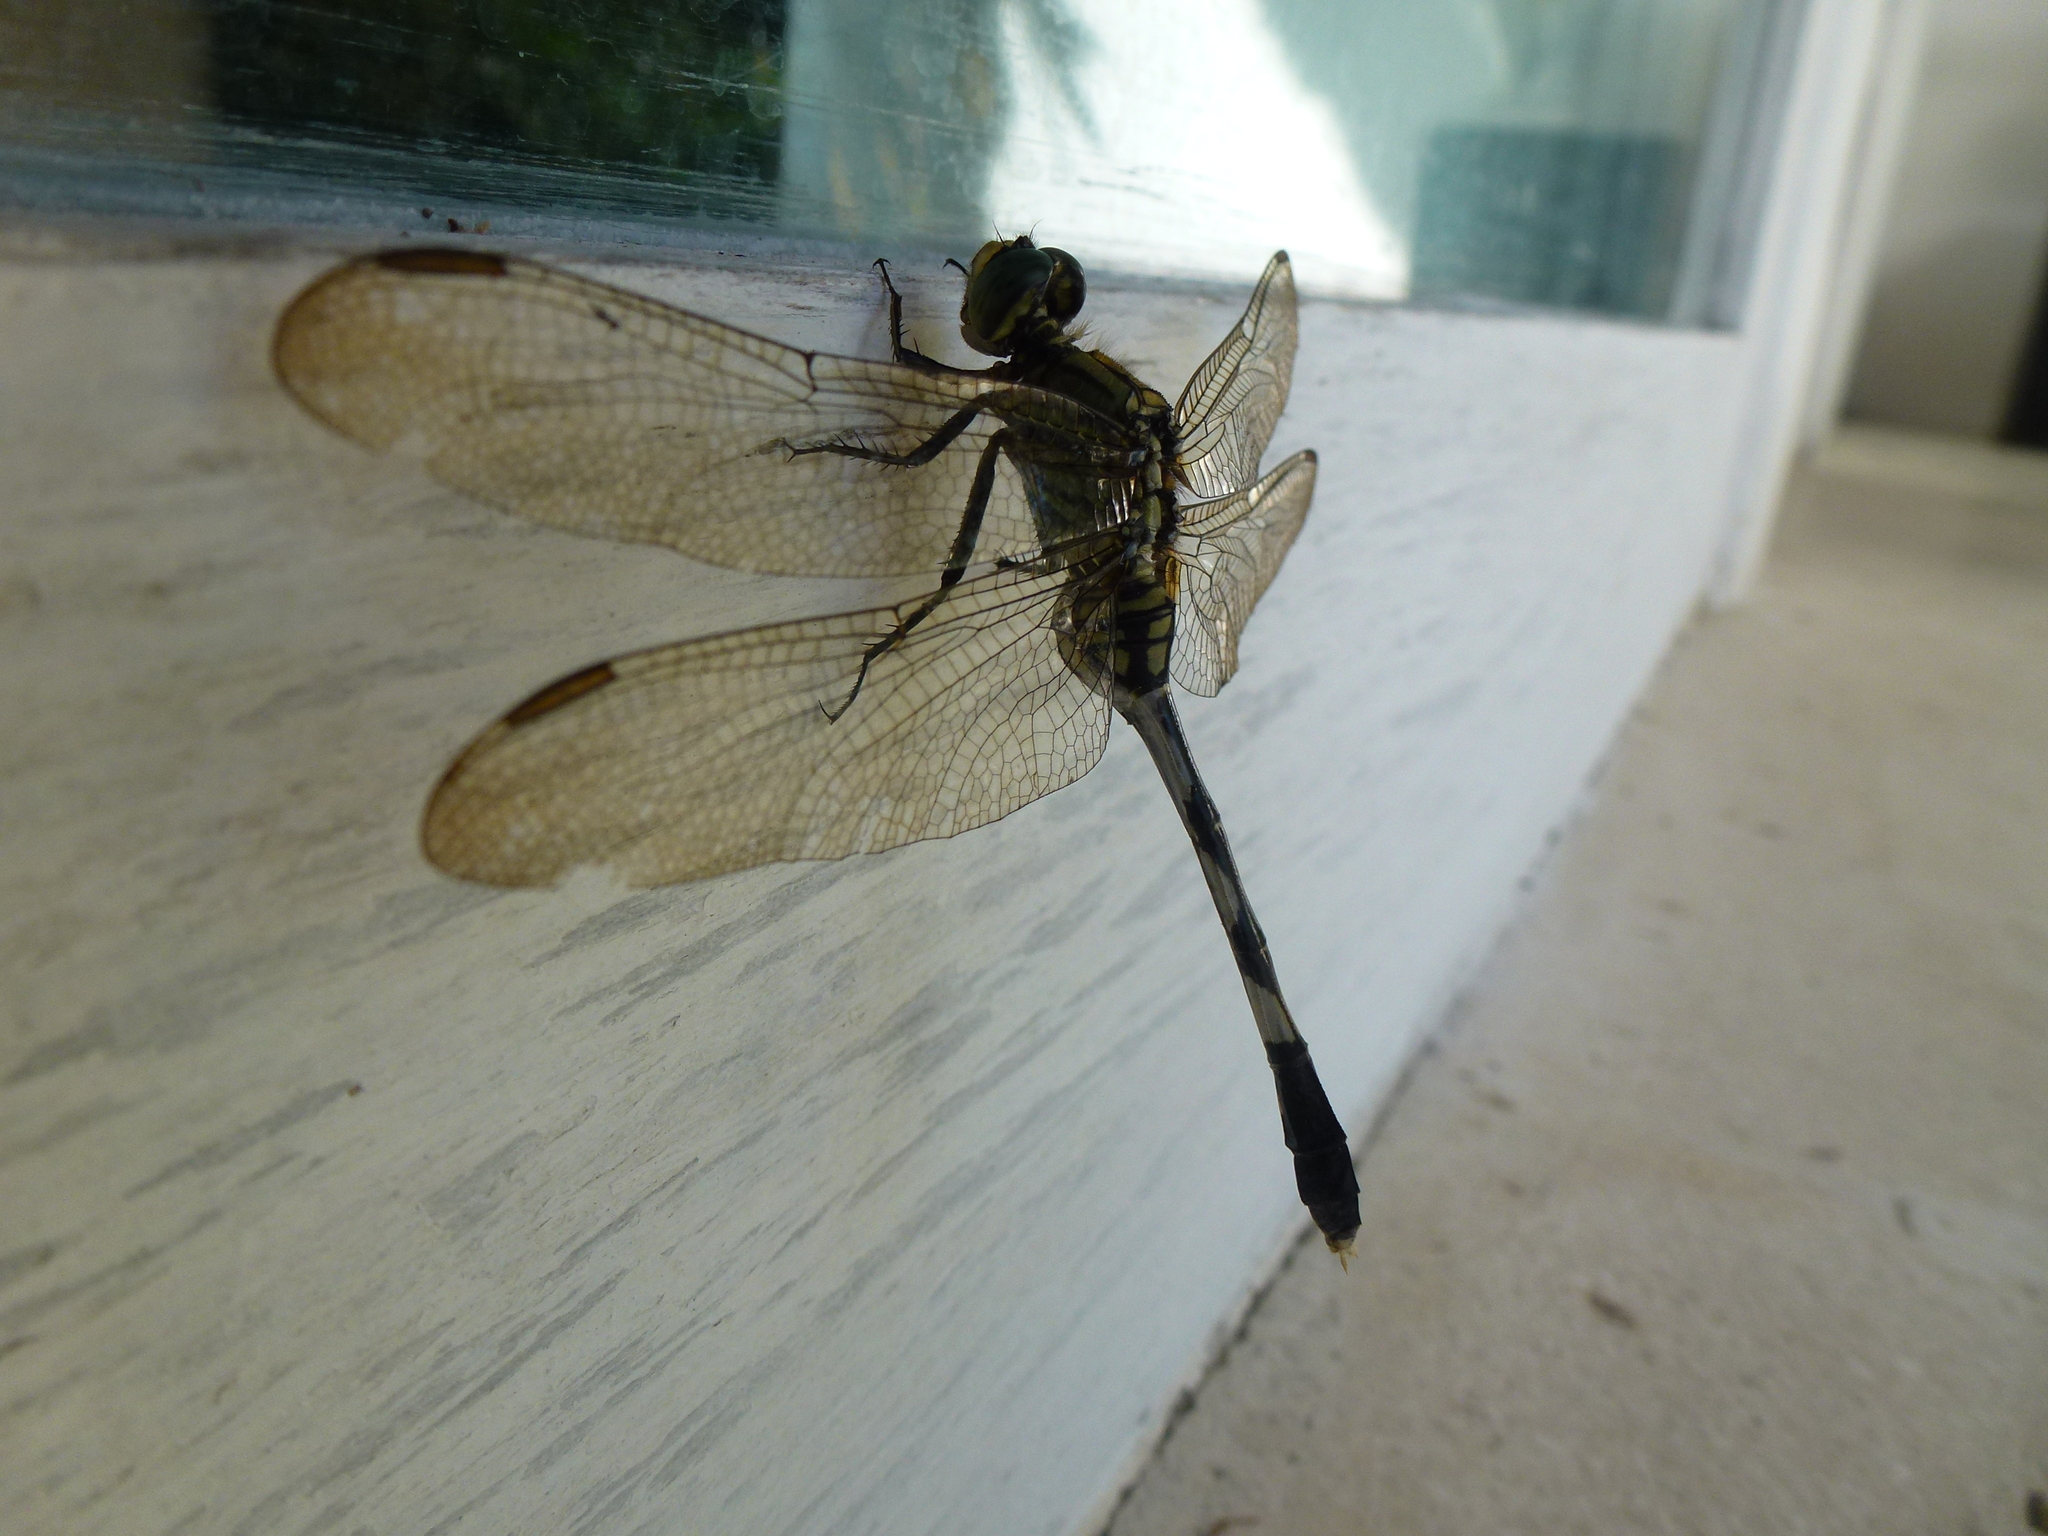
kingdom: Animalia
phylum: Arthropoda
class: Insecta
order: Odonata
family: Libellulidae
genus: Orthetrum
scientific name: Orthetrum sabina
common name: Slender skimmer
